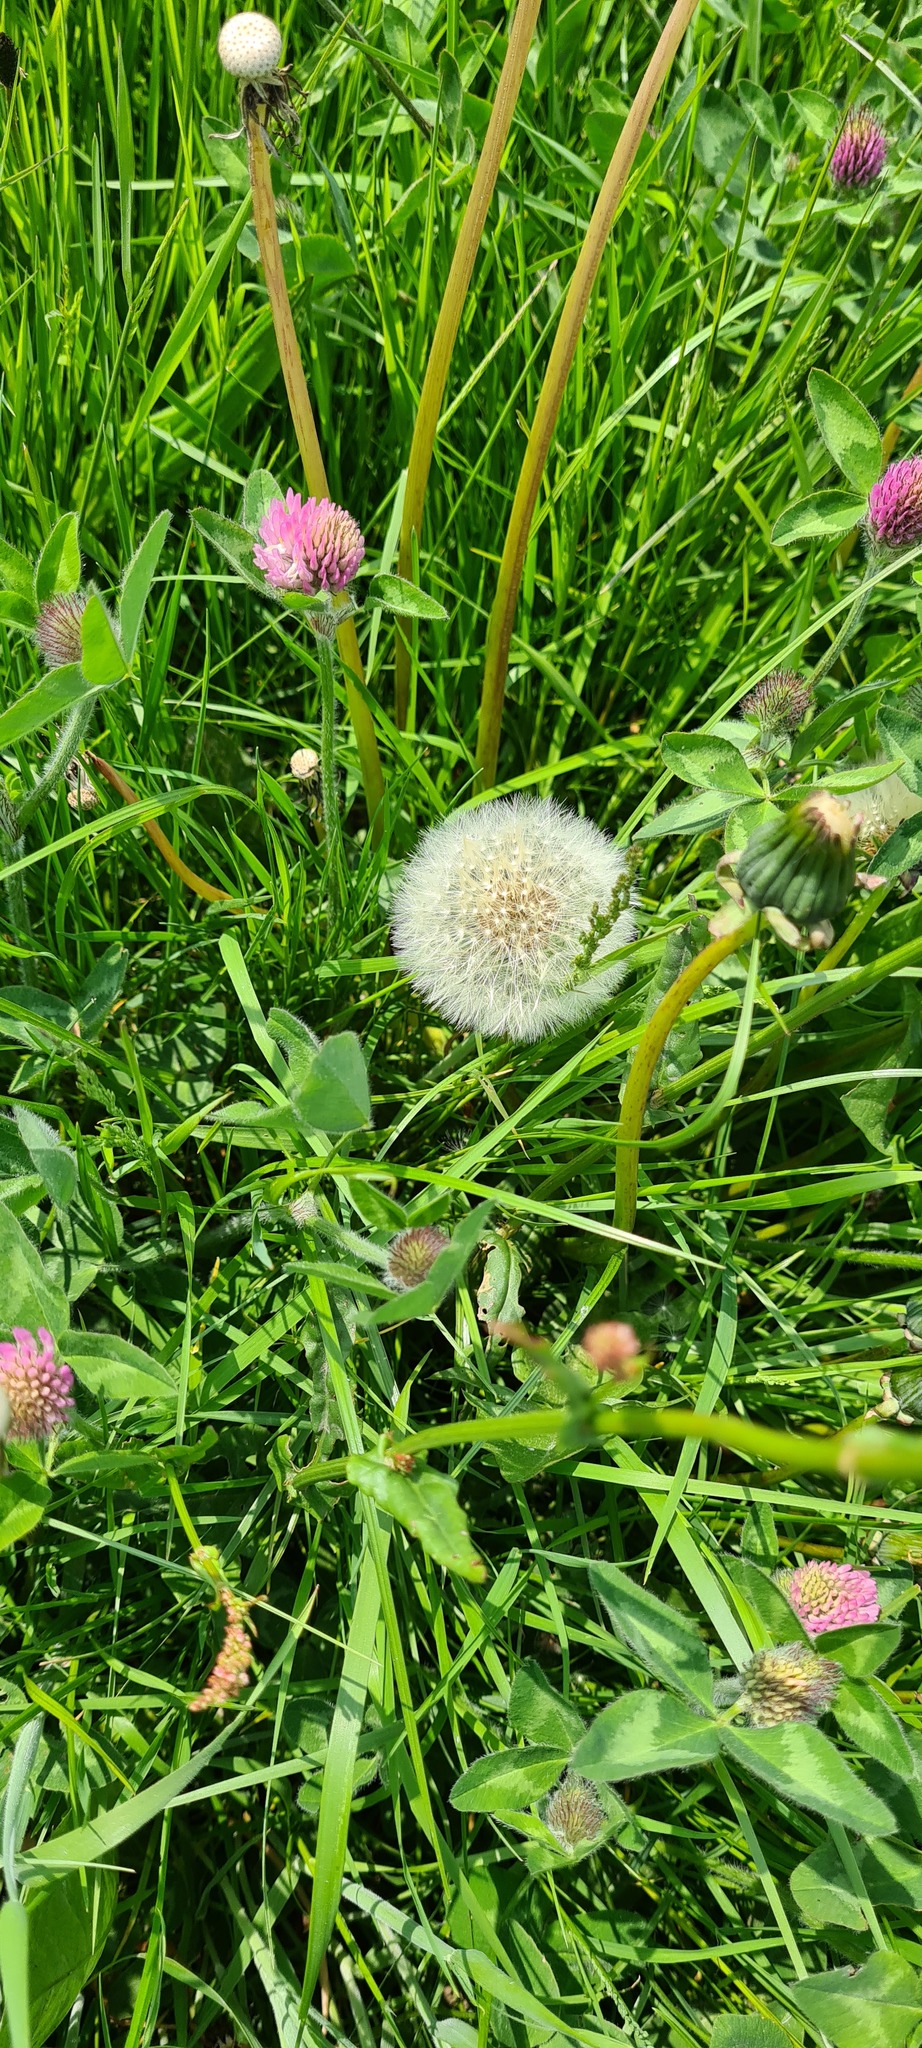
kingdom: Plantae
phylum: Tracheophyta
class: Magnoliopsida
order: Fabales
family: Fabaceae
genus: Trifolium
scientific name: Trifolium pratense
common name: Red clover
